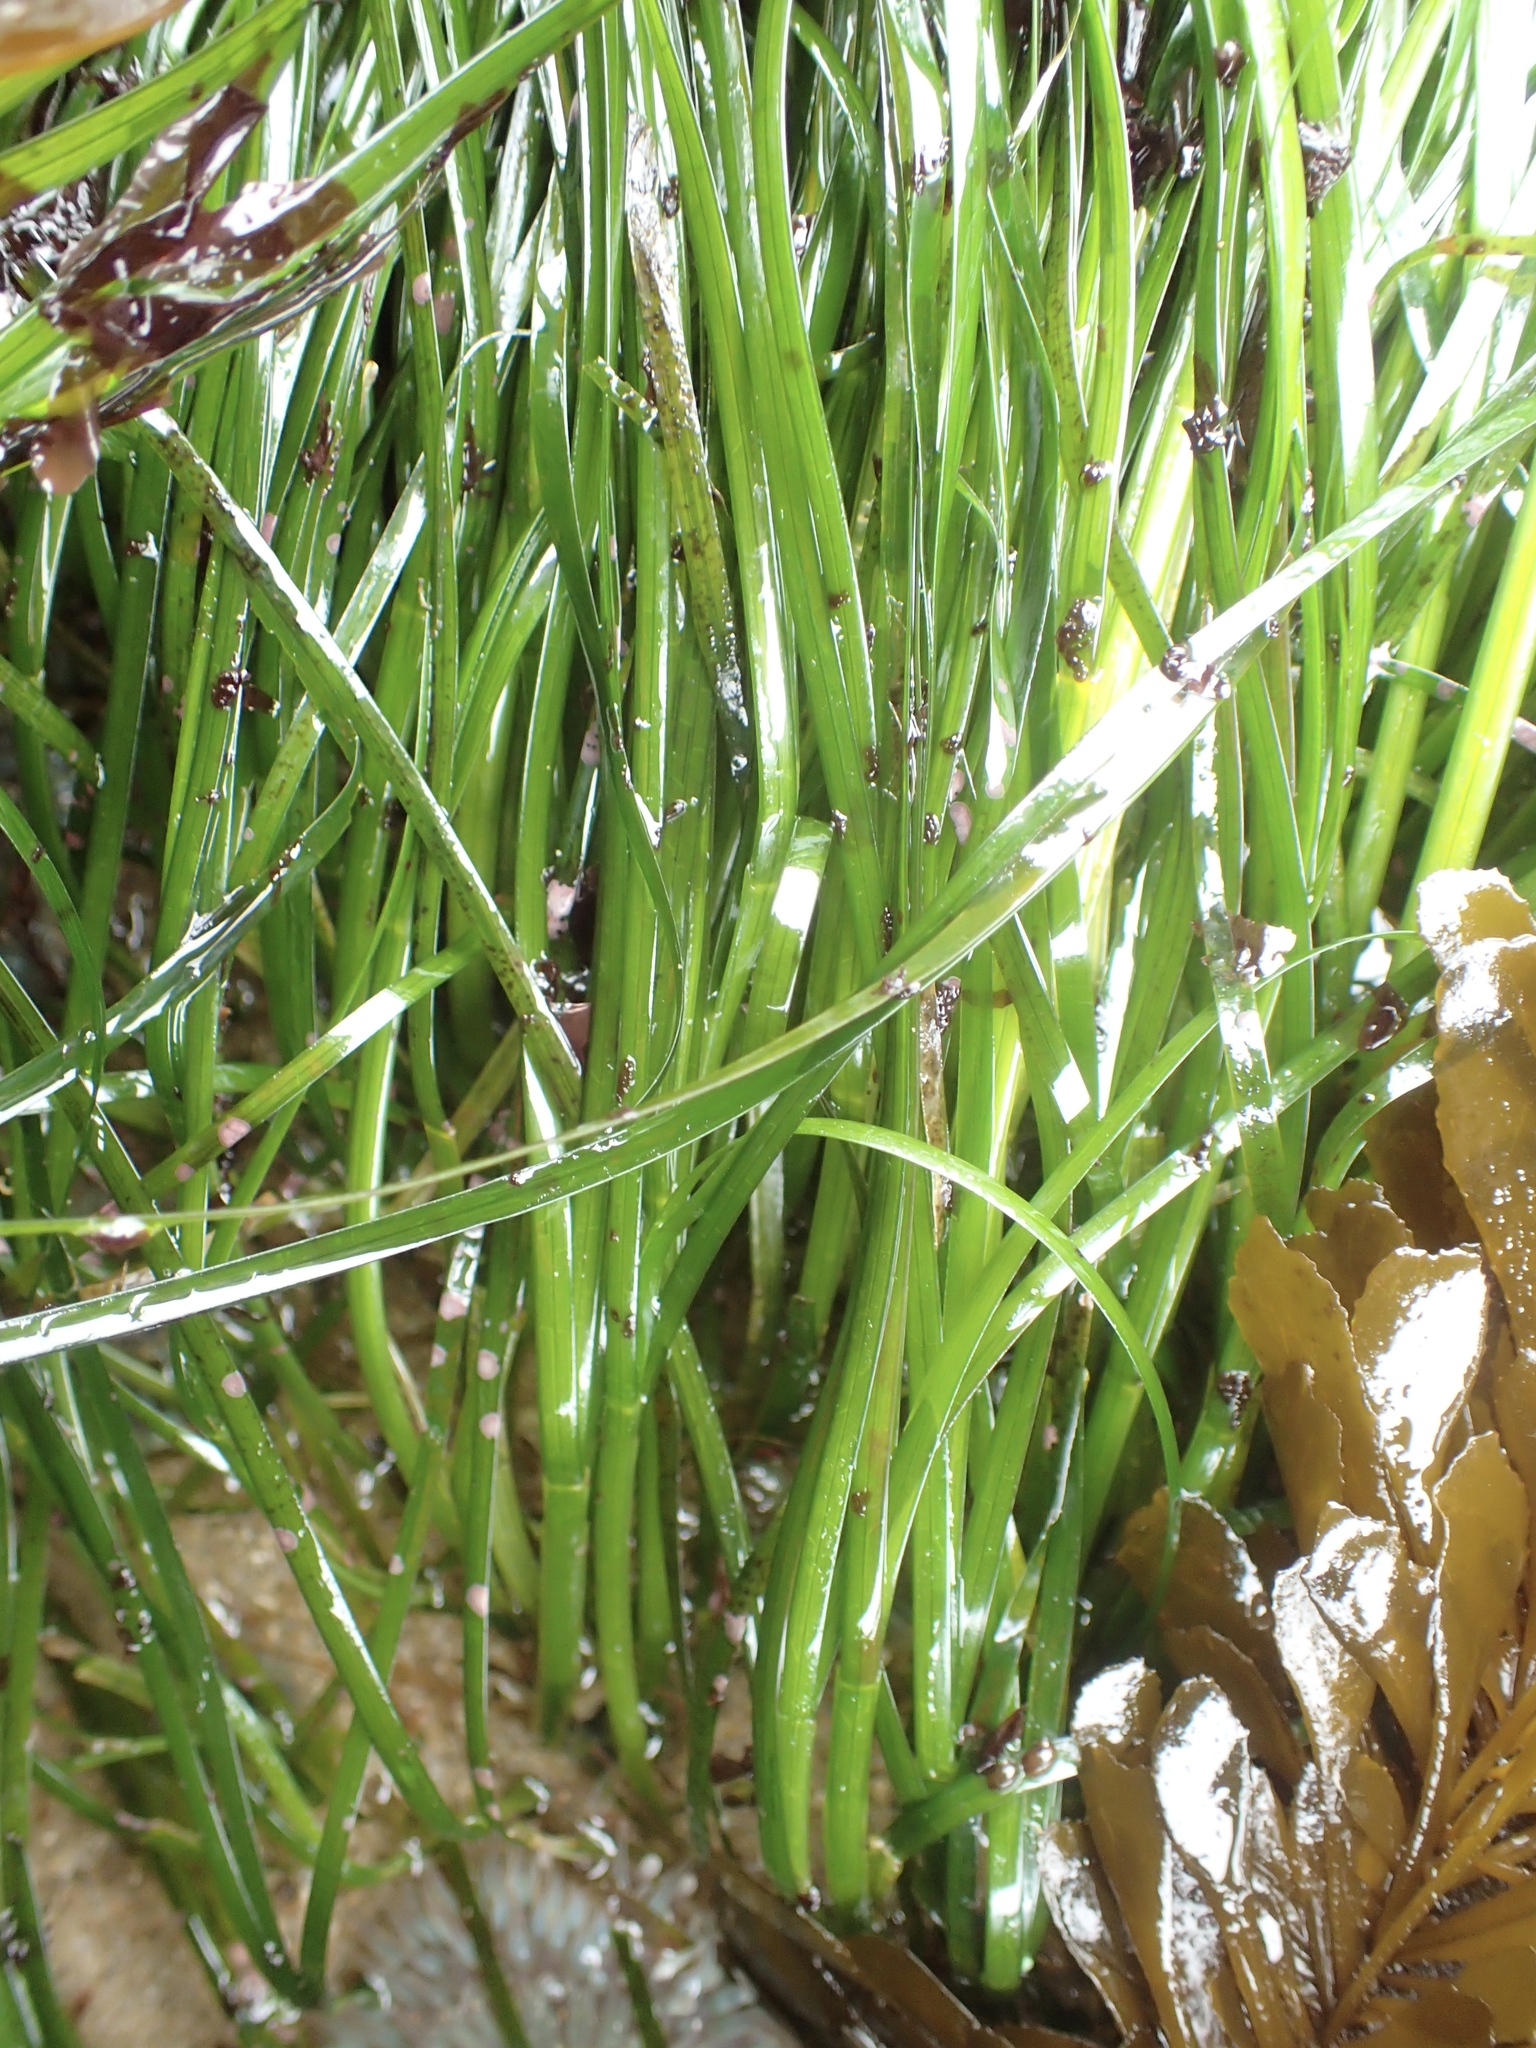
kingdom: Plantae
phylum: Tracheophyta
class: Liliopsida
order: Alismatales
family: Zosteraceae
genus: Phyllospadix
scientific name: Phyllospadix scouleri
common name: Species code: ps
